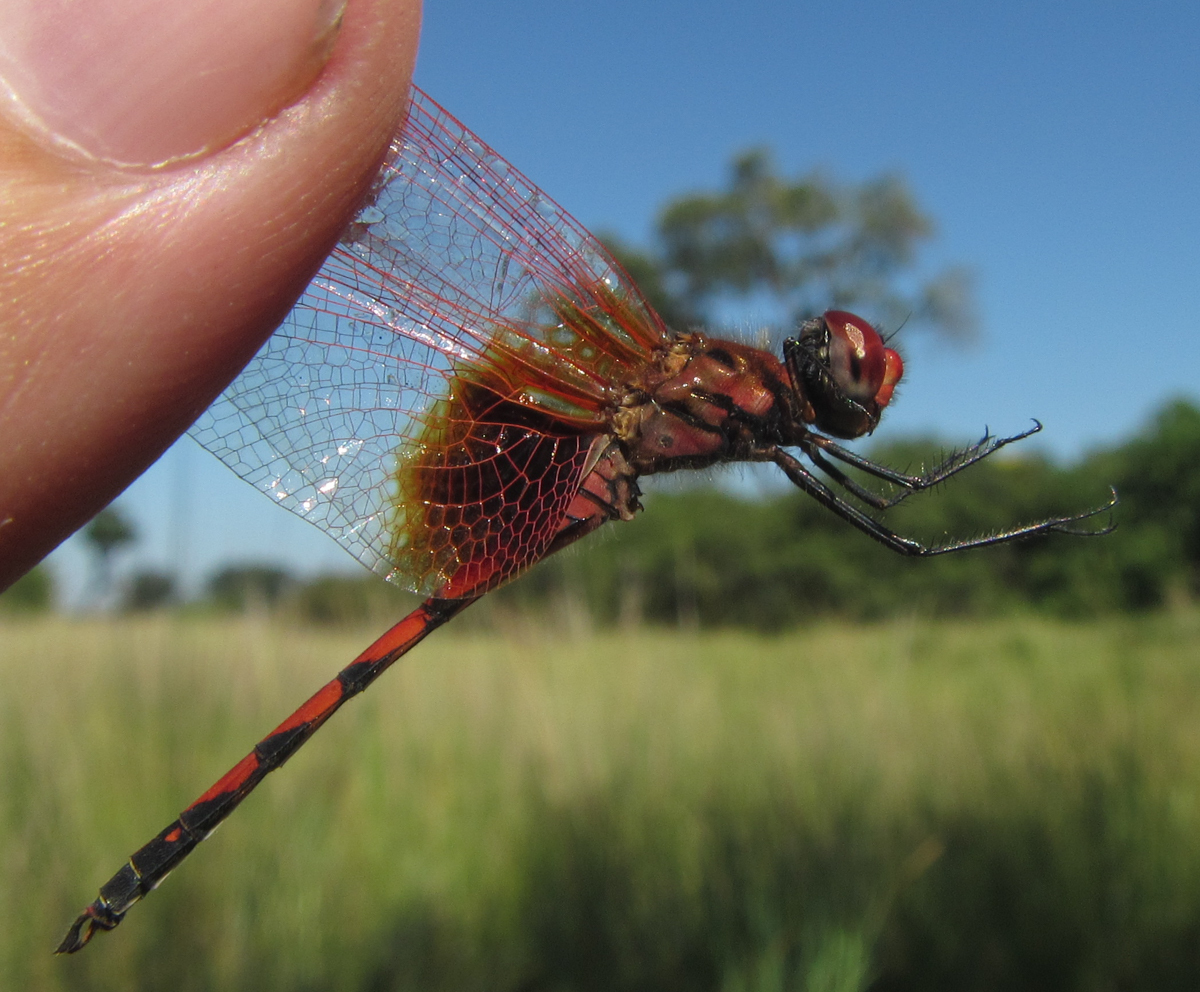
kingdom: Animalia
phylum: Arthropoda
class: Insecta
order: Odonata
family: Libellulidae
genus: Trithemis
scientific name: Trithemis monardi
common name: Monard's dropwing
